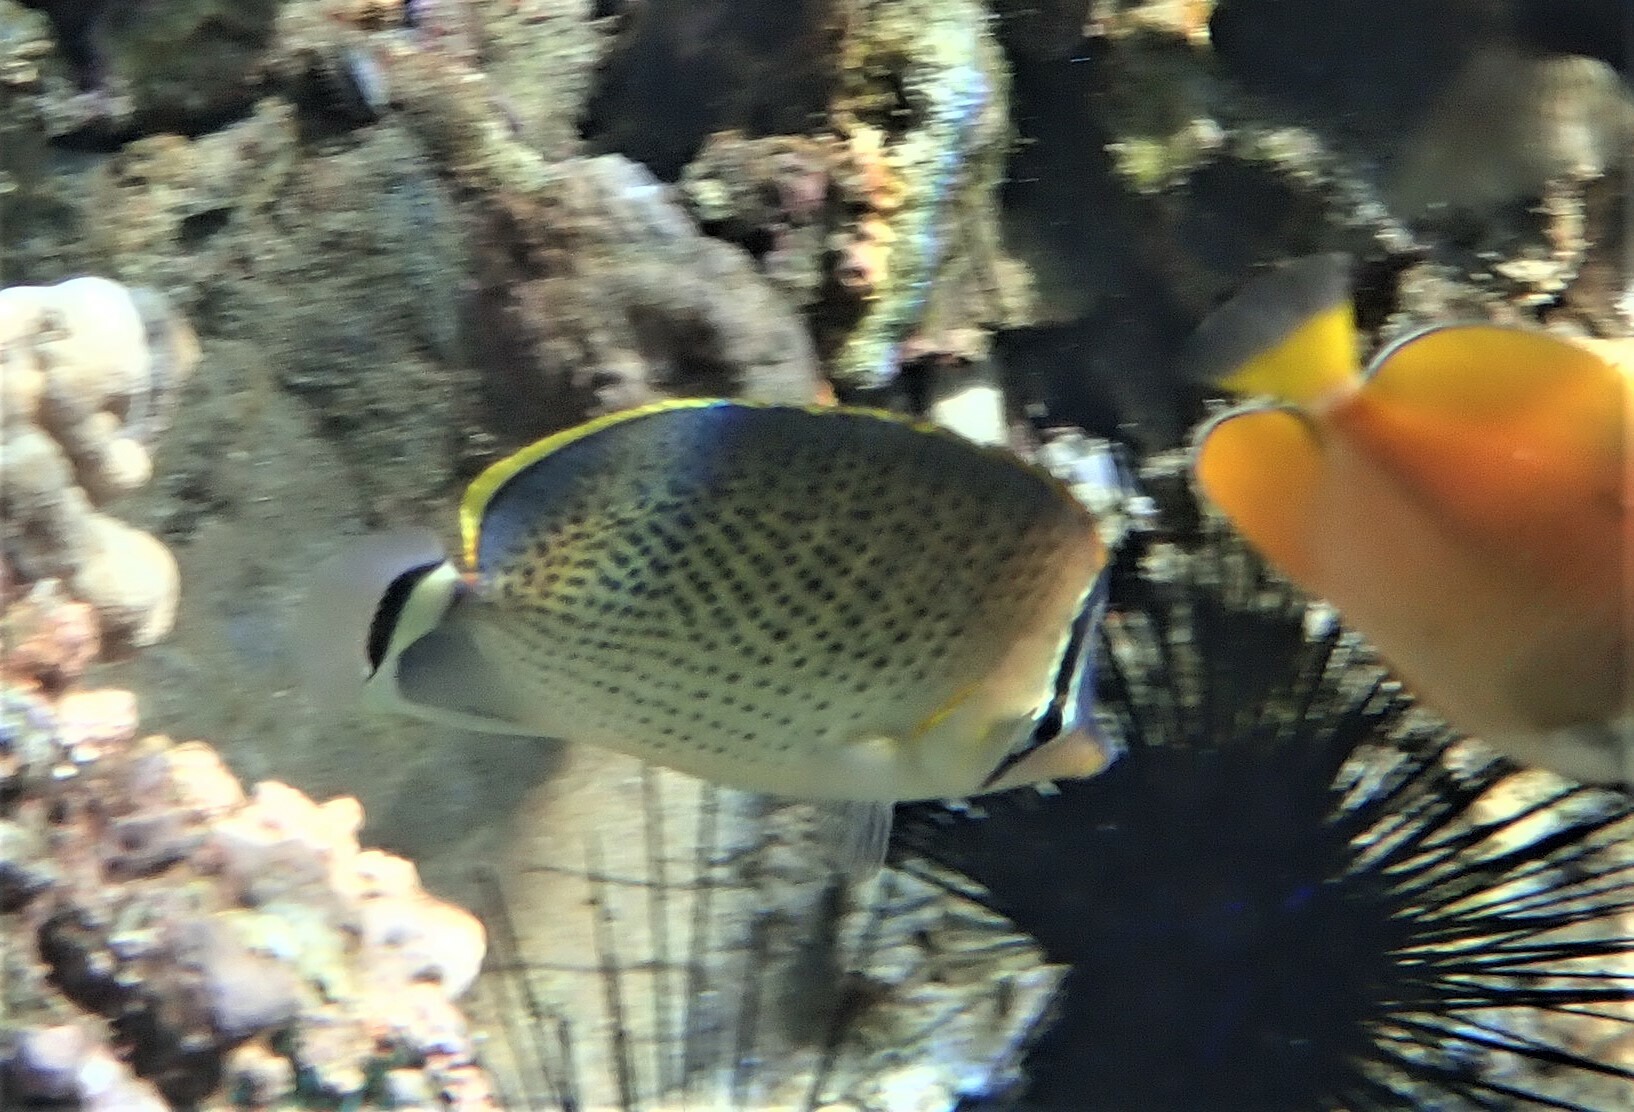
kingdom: Animalia
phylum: Chordata
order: Perciformes
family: Chaetodontidae
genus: Chaetodon
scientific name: Chaetodon guttatissimus
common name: Spotted butterflyfish
